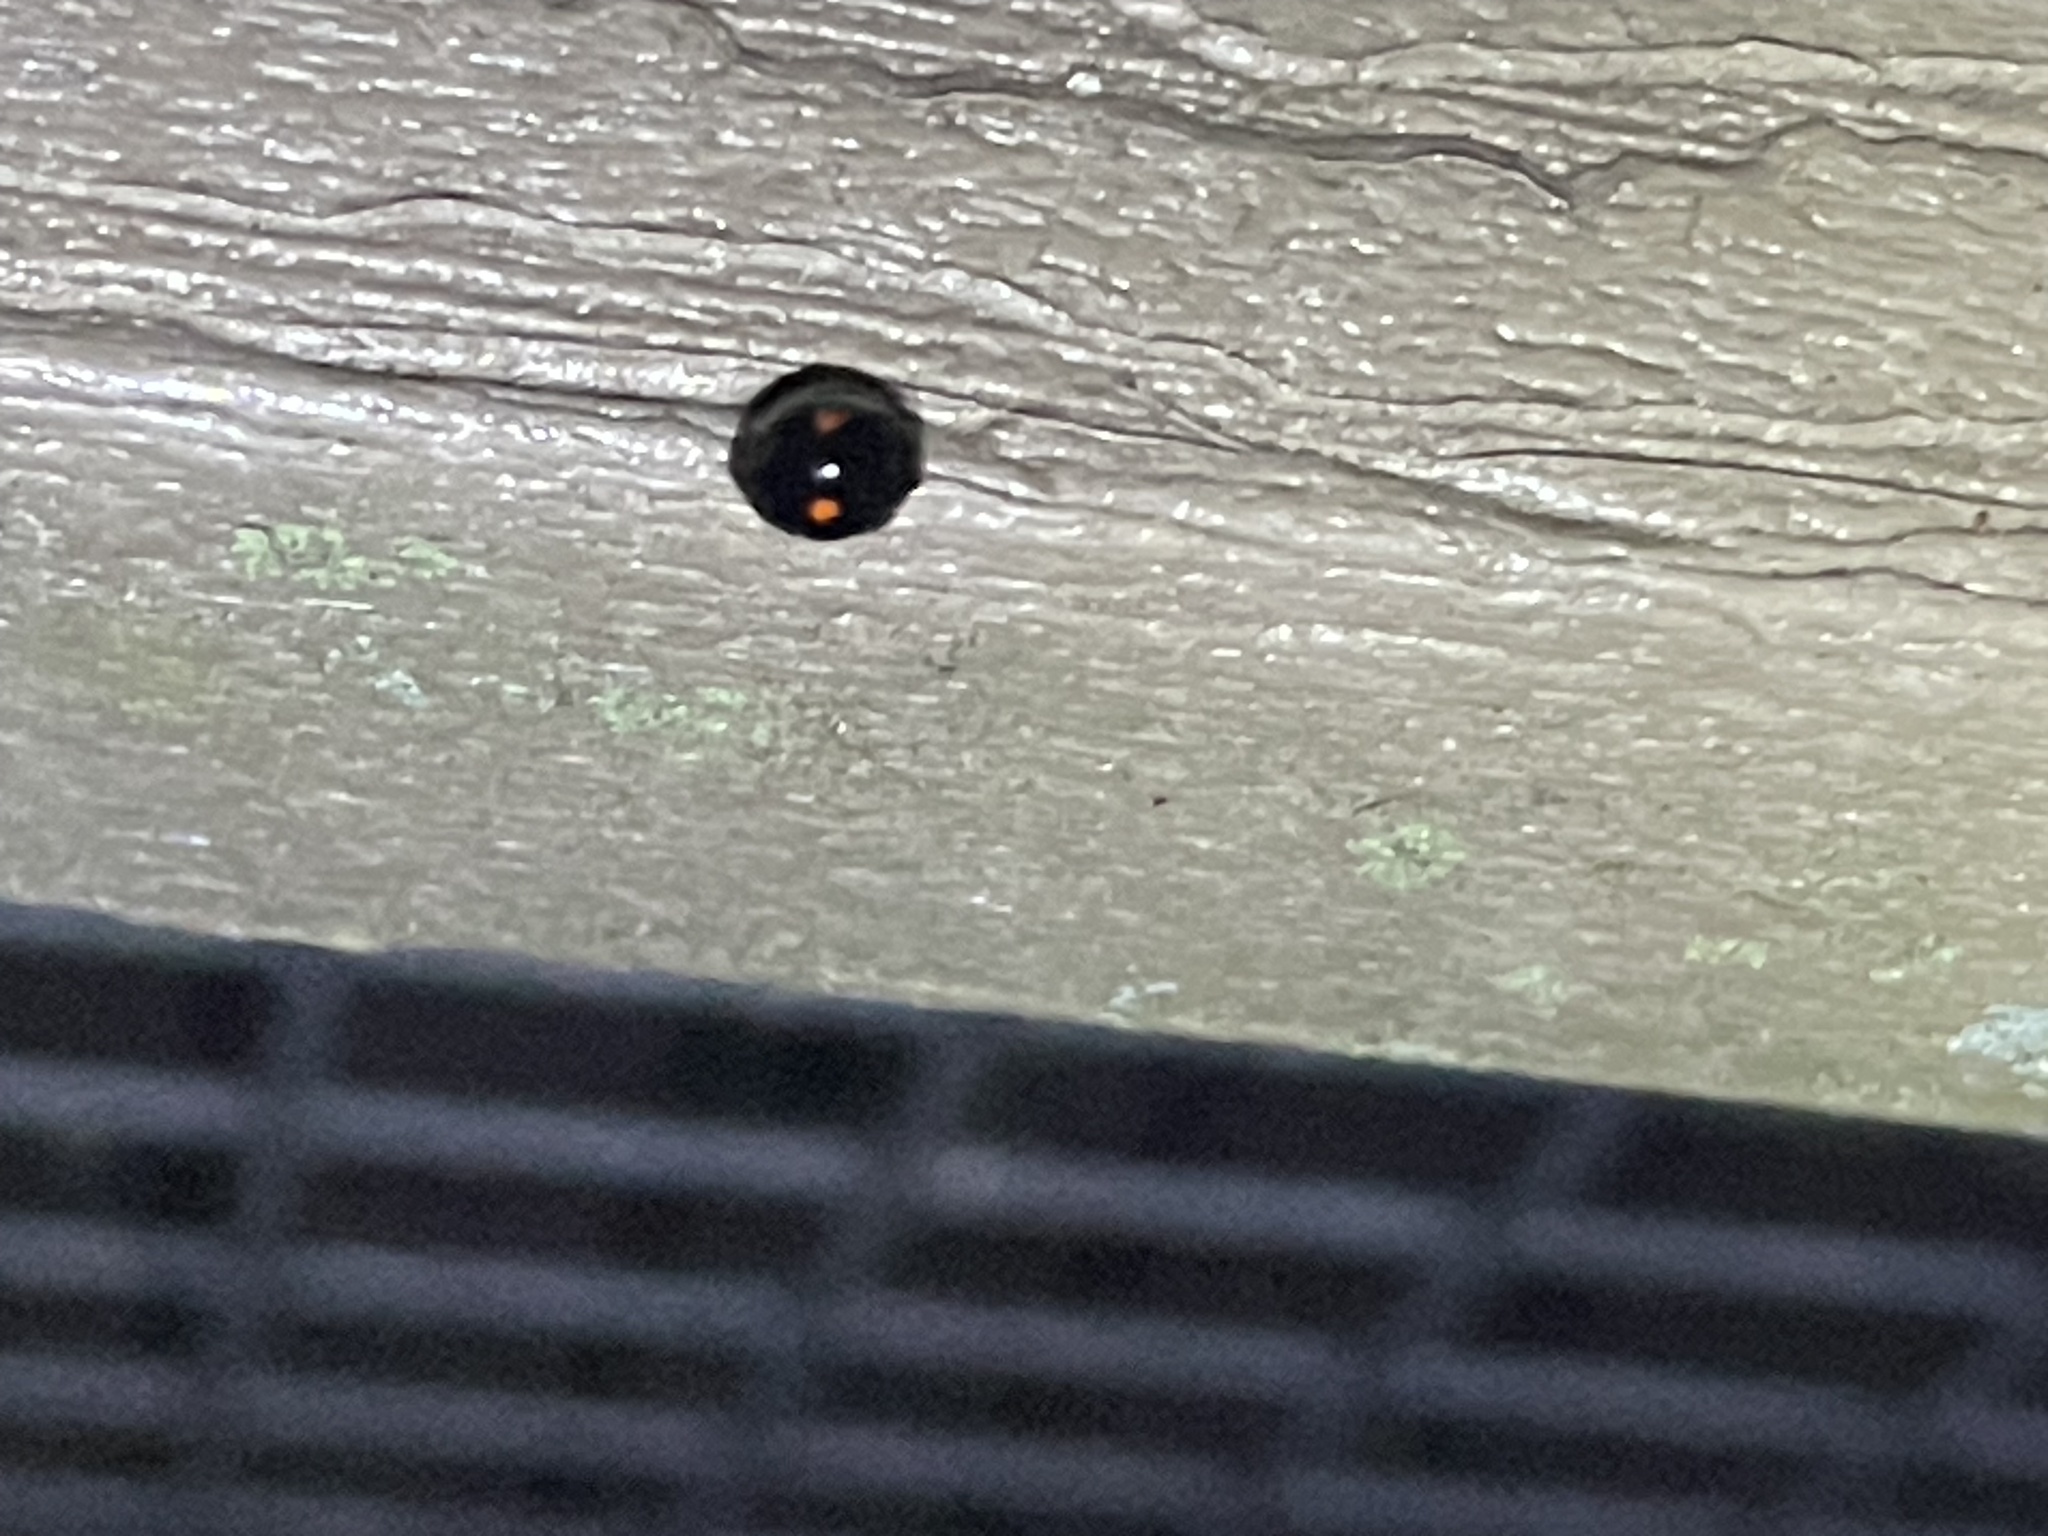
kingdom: Animalia
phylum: Arthropoda
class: Insecta
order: Coleoptera
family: Coccinellidae
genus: Chilocorus
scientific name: Chilocorus stigma
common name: Twicestabbed lady beetle
